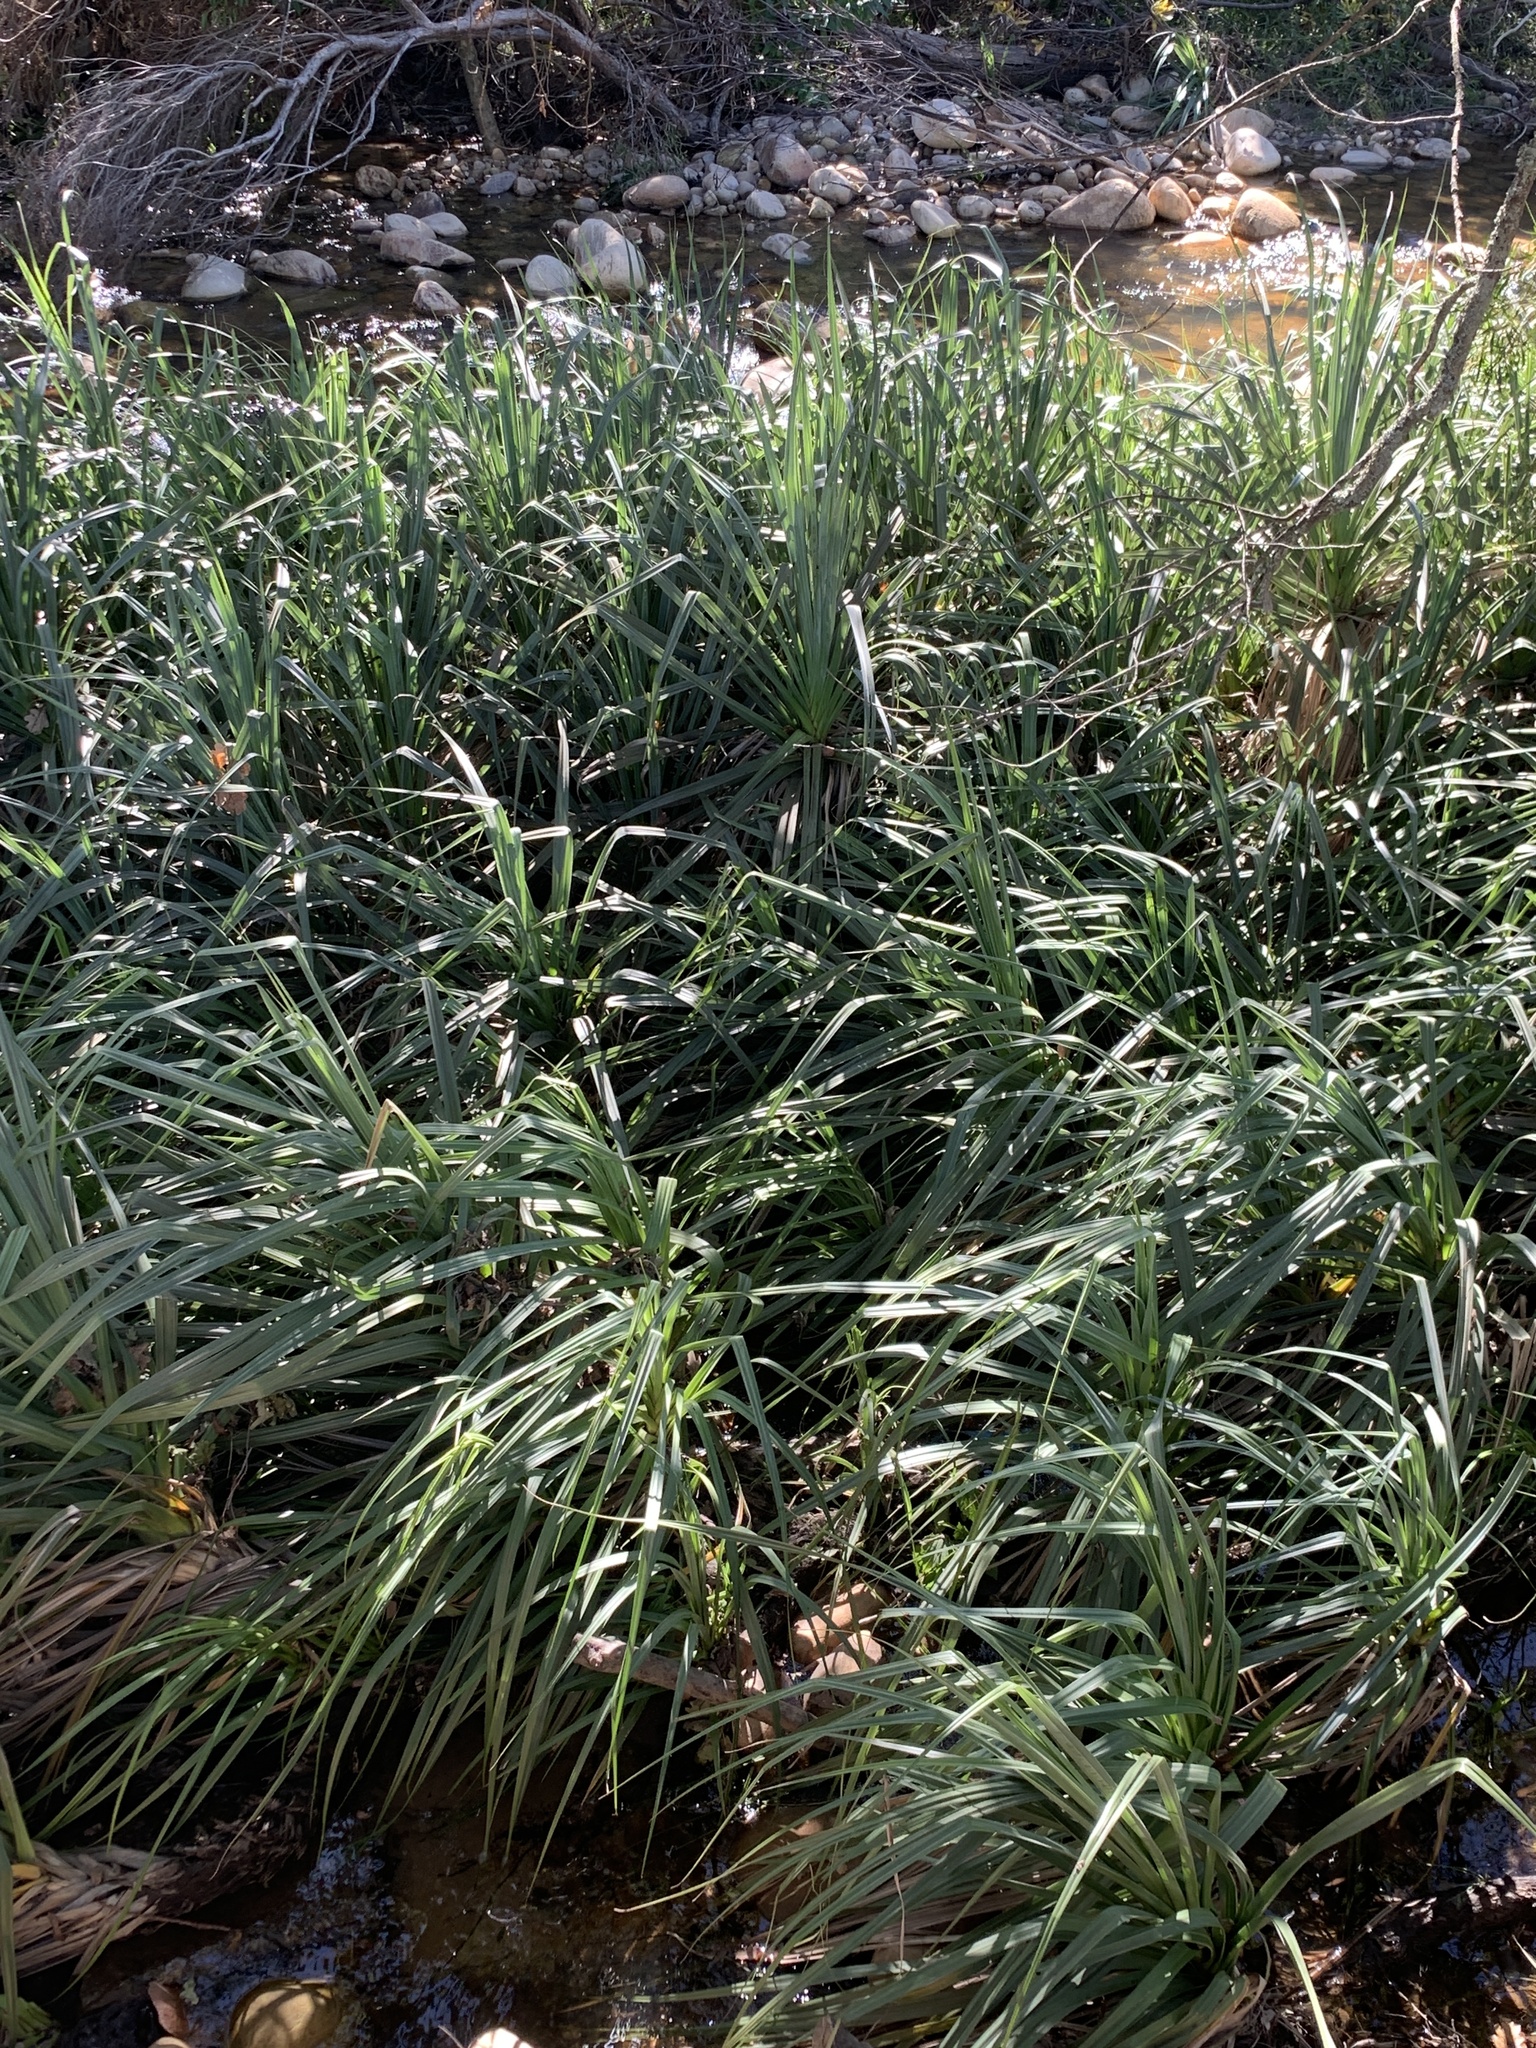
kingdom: Plantae
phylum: Tracheophyta
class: Liliopsida
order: Poales
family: Thurniaceae
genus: Prionium
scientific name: Prionium serratum
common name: Palmiet
